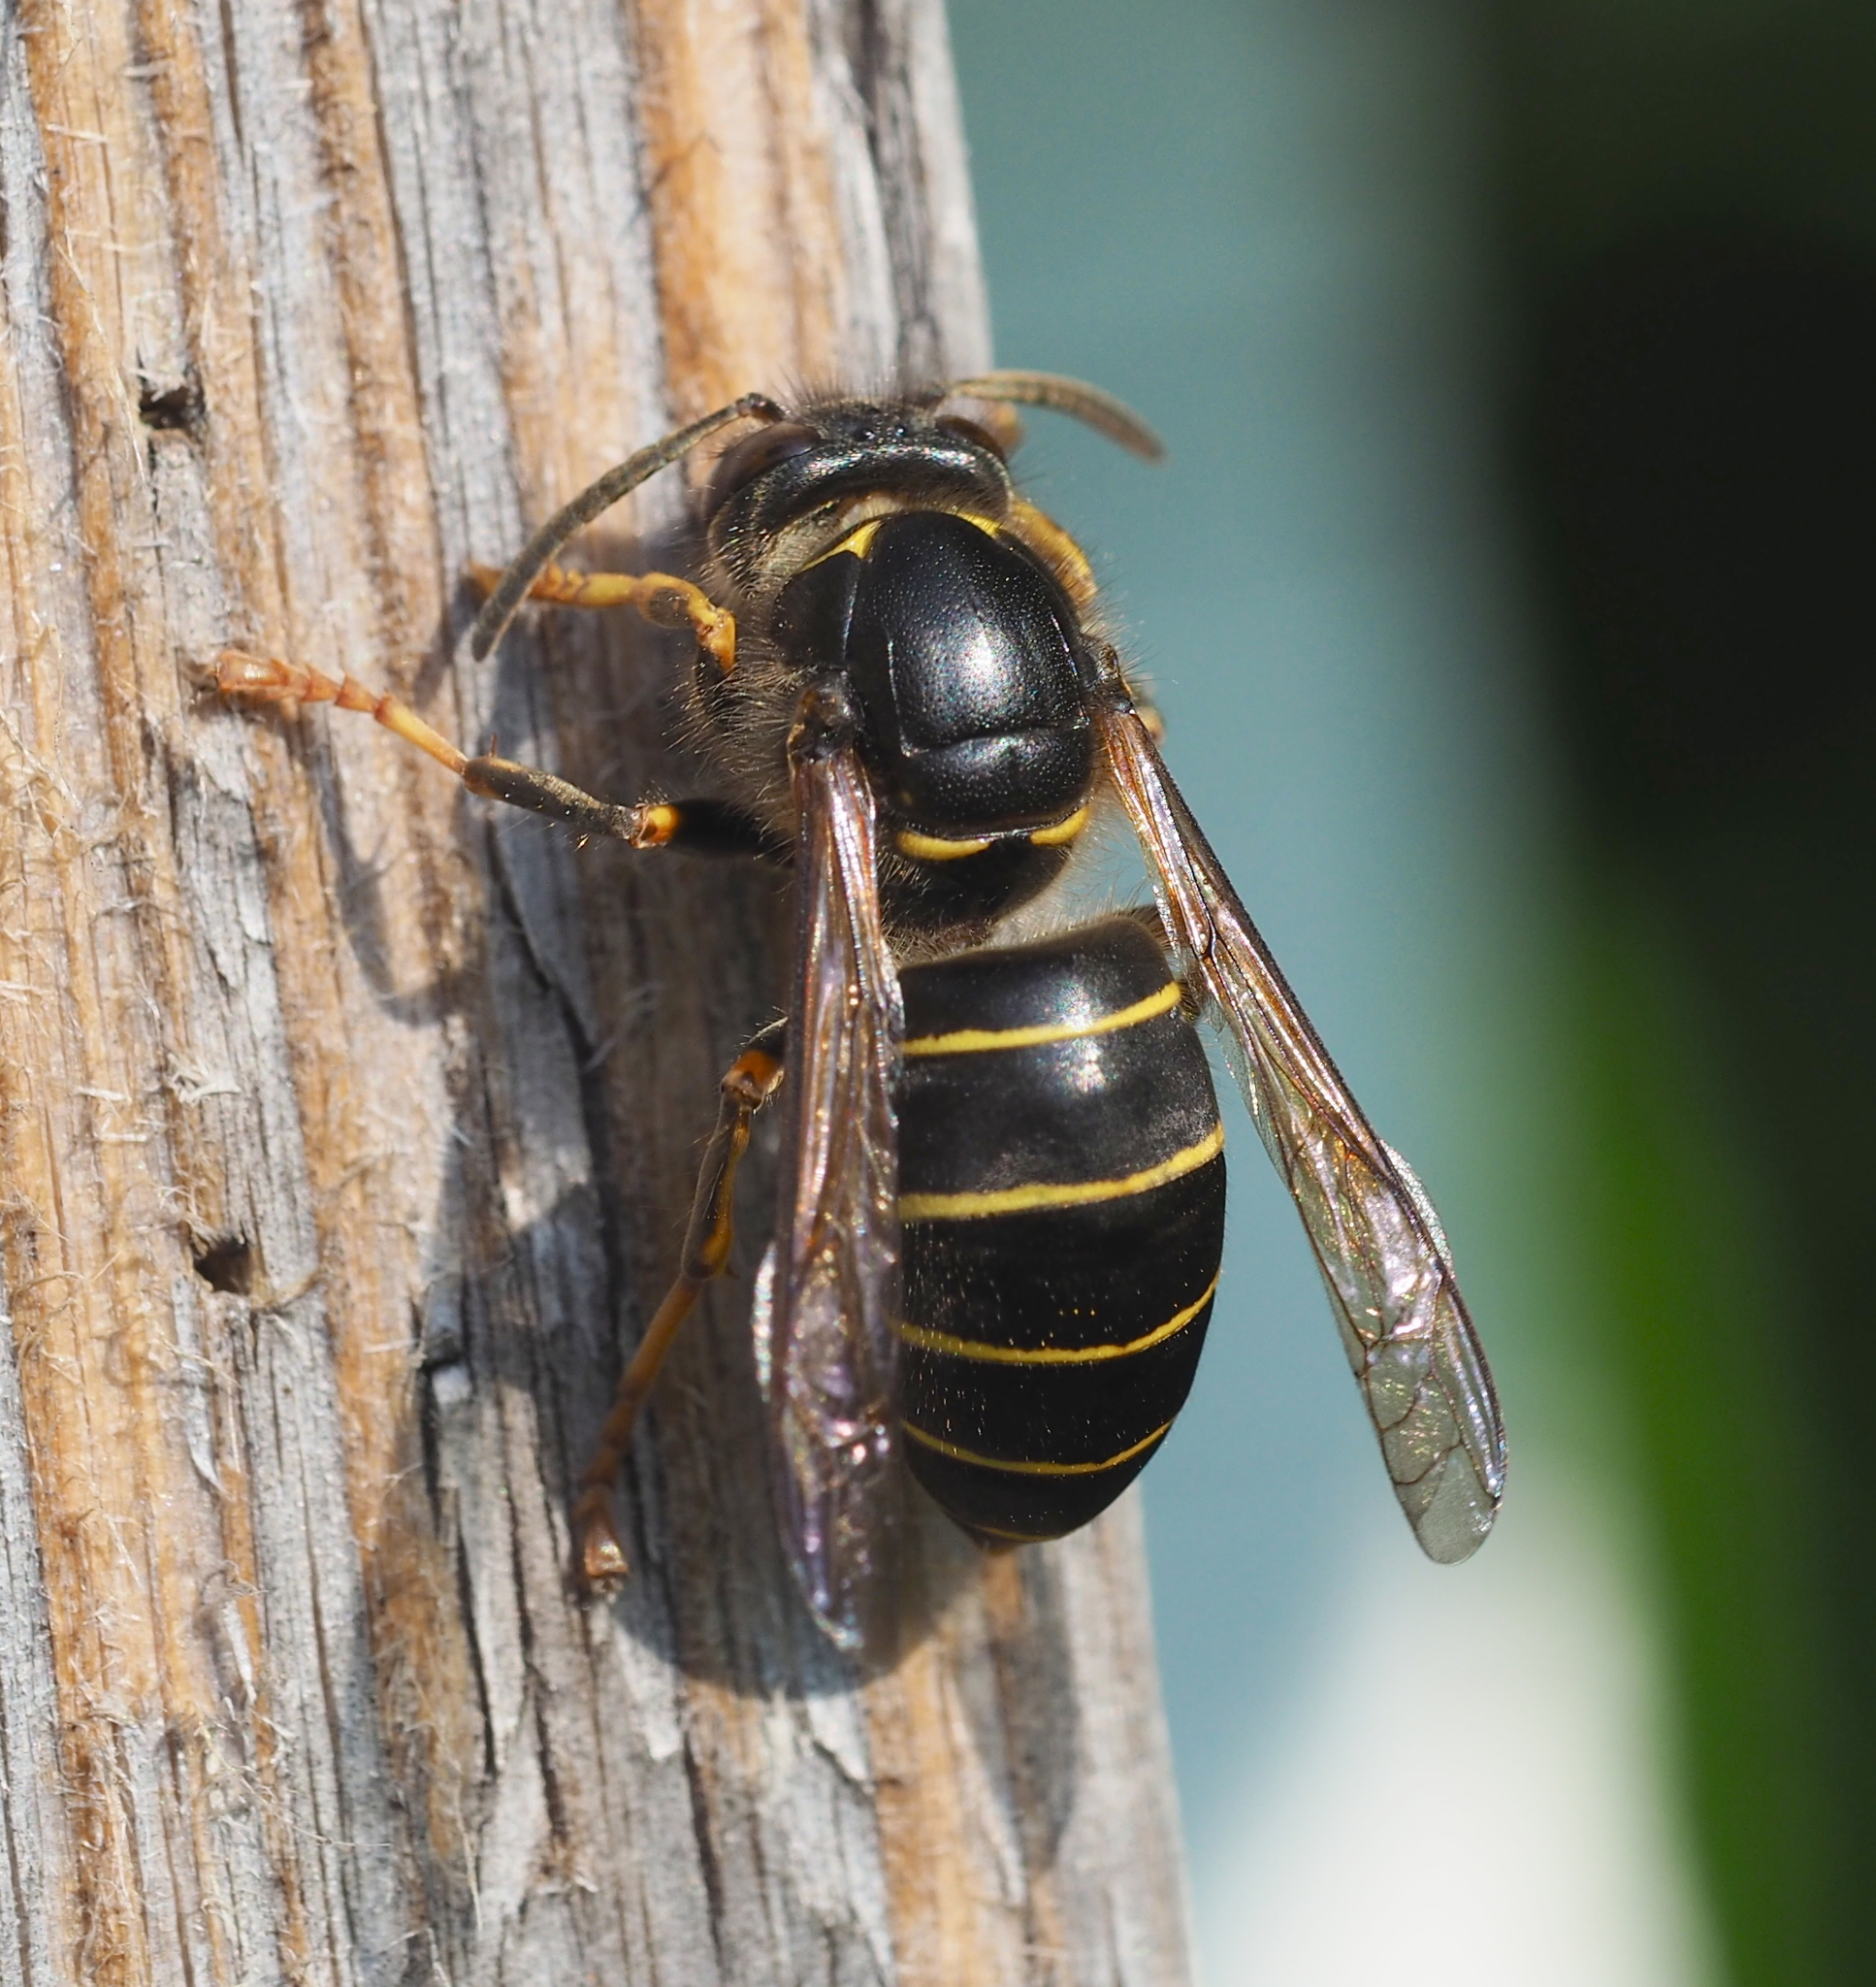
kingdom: Animalia
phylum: Arthropoda
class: Insecta
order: Hymenoptera
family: Vespidae
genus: Dolichovespula
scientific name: Dolichovespula media
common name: Median wasp
